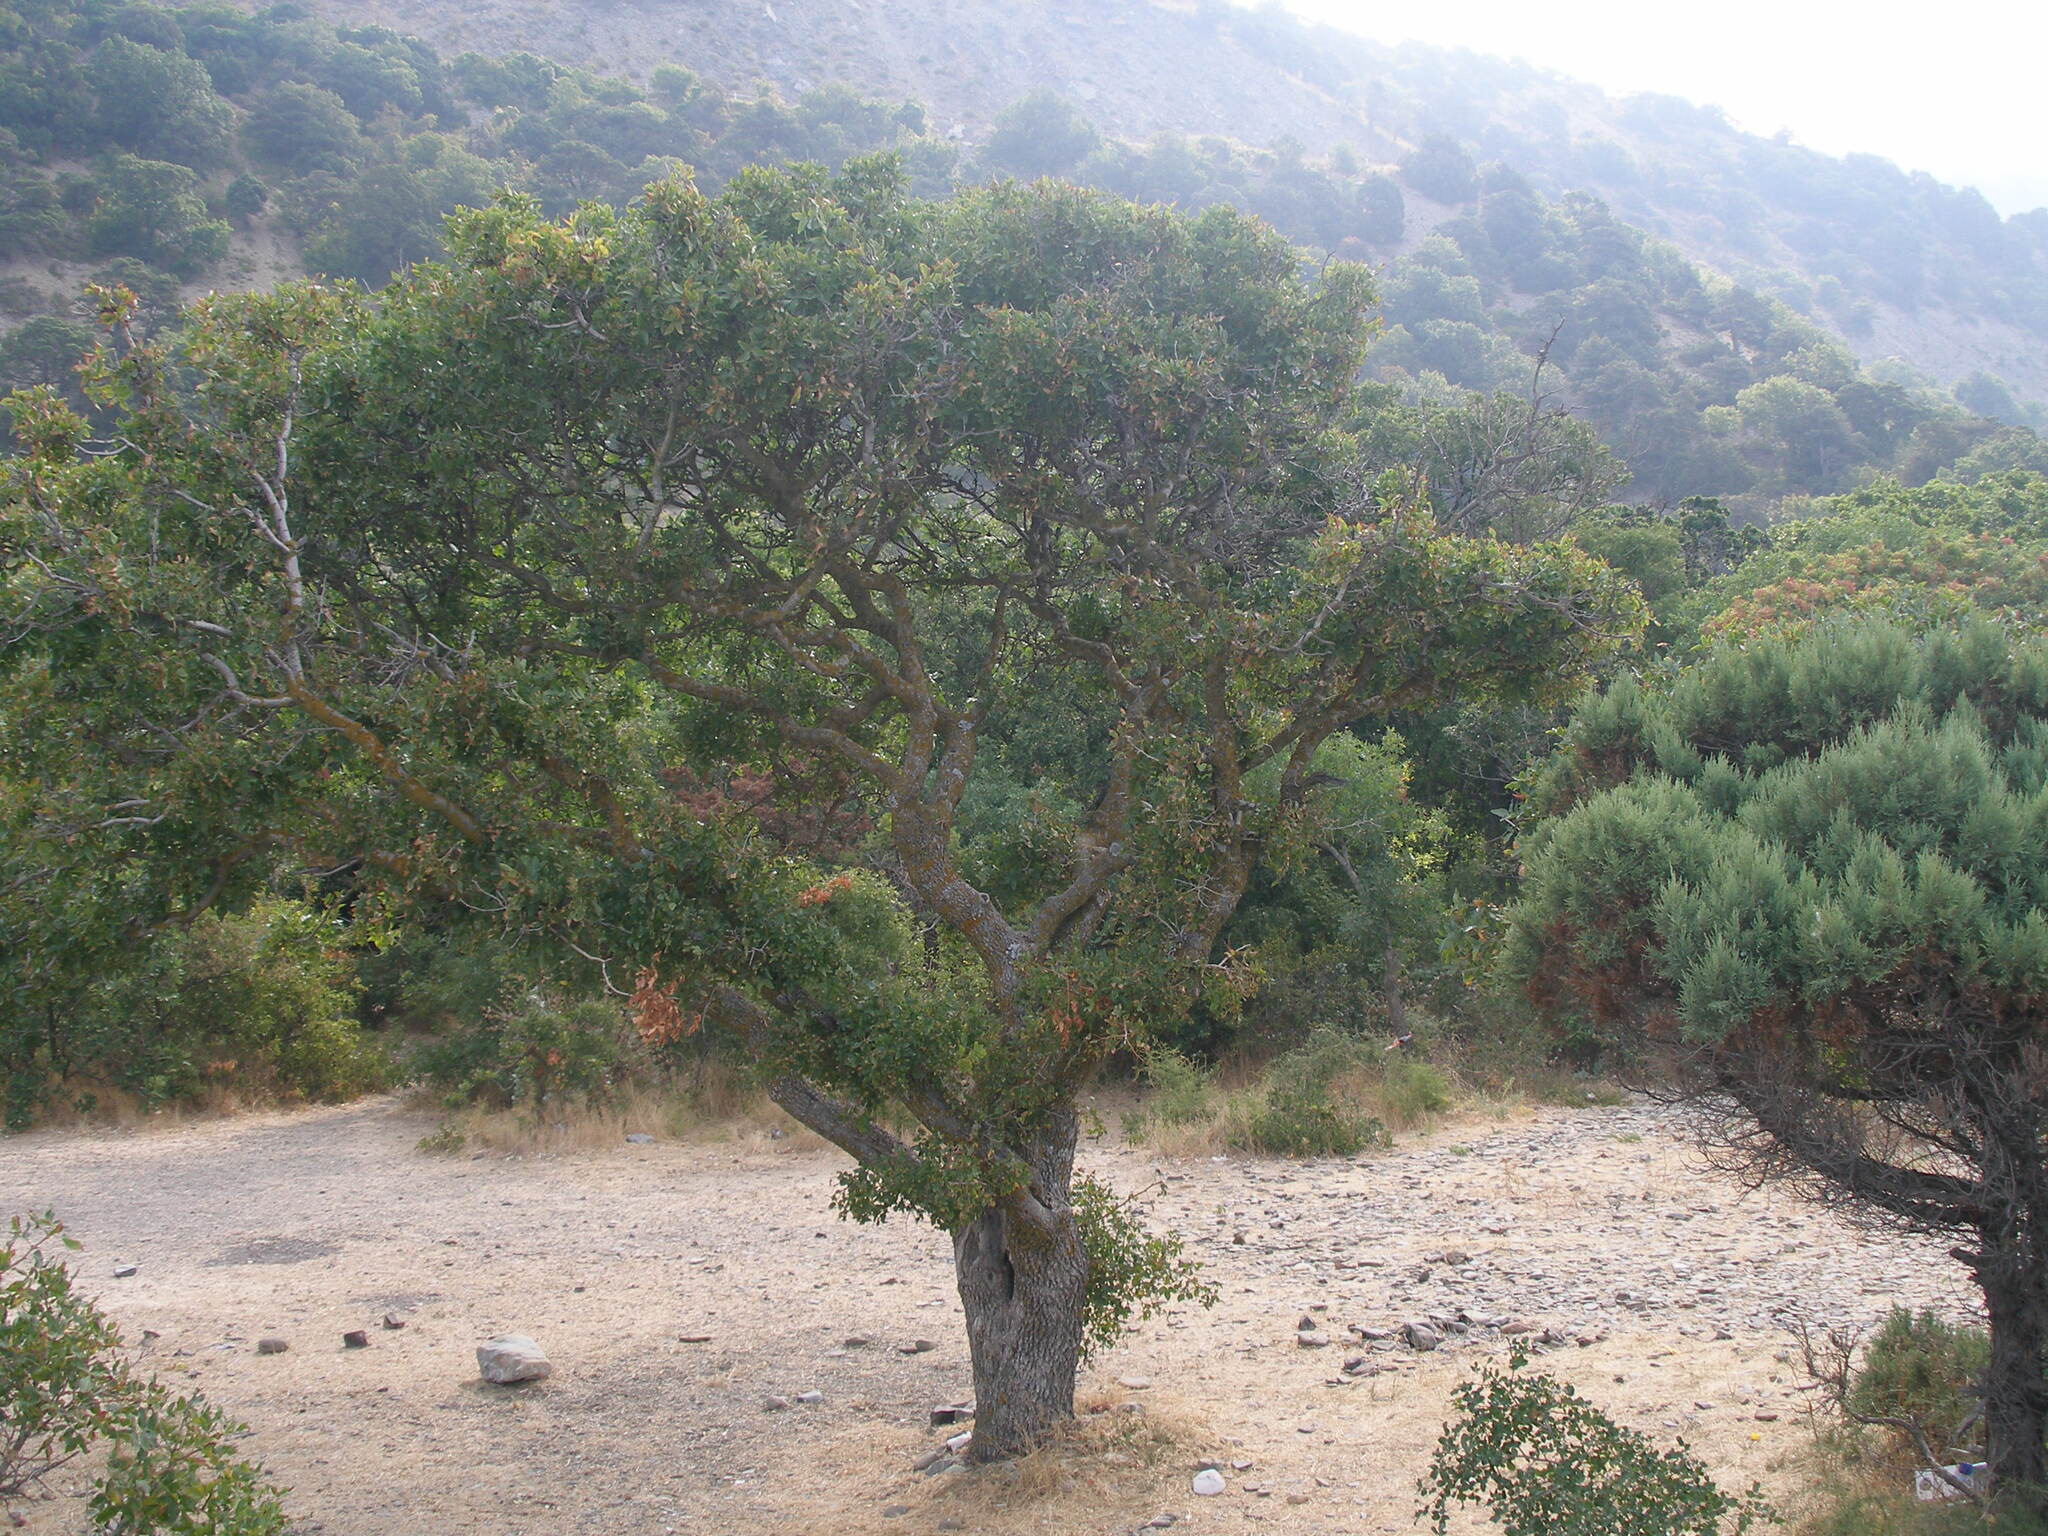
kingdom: Plantae
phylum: Tracheophyta
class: Magnoliopsida
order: Sapindales
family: Anacardiaceae
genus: Pistacia
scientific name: Pistacia atlantica
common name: Mt. atlas mastic tree
